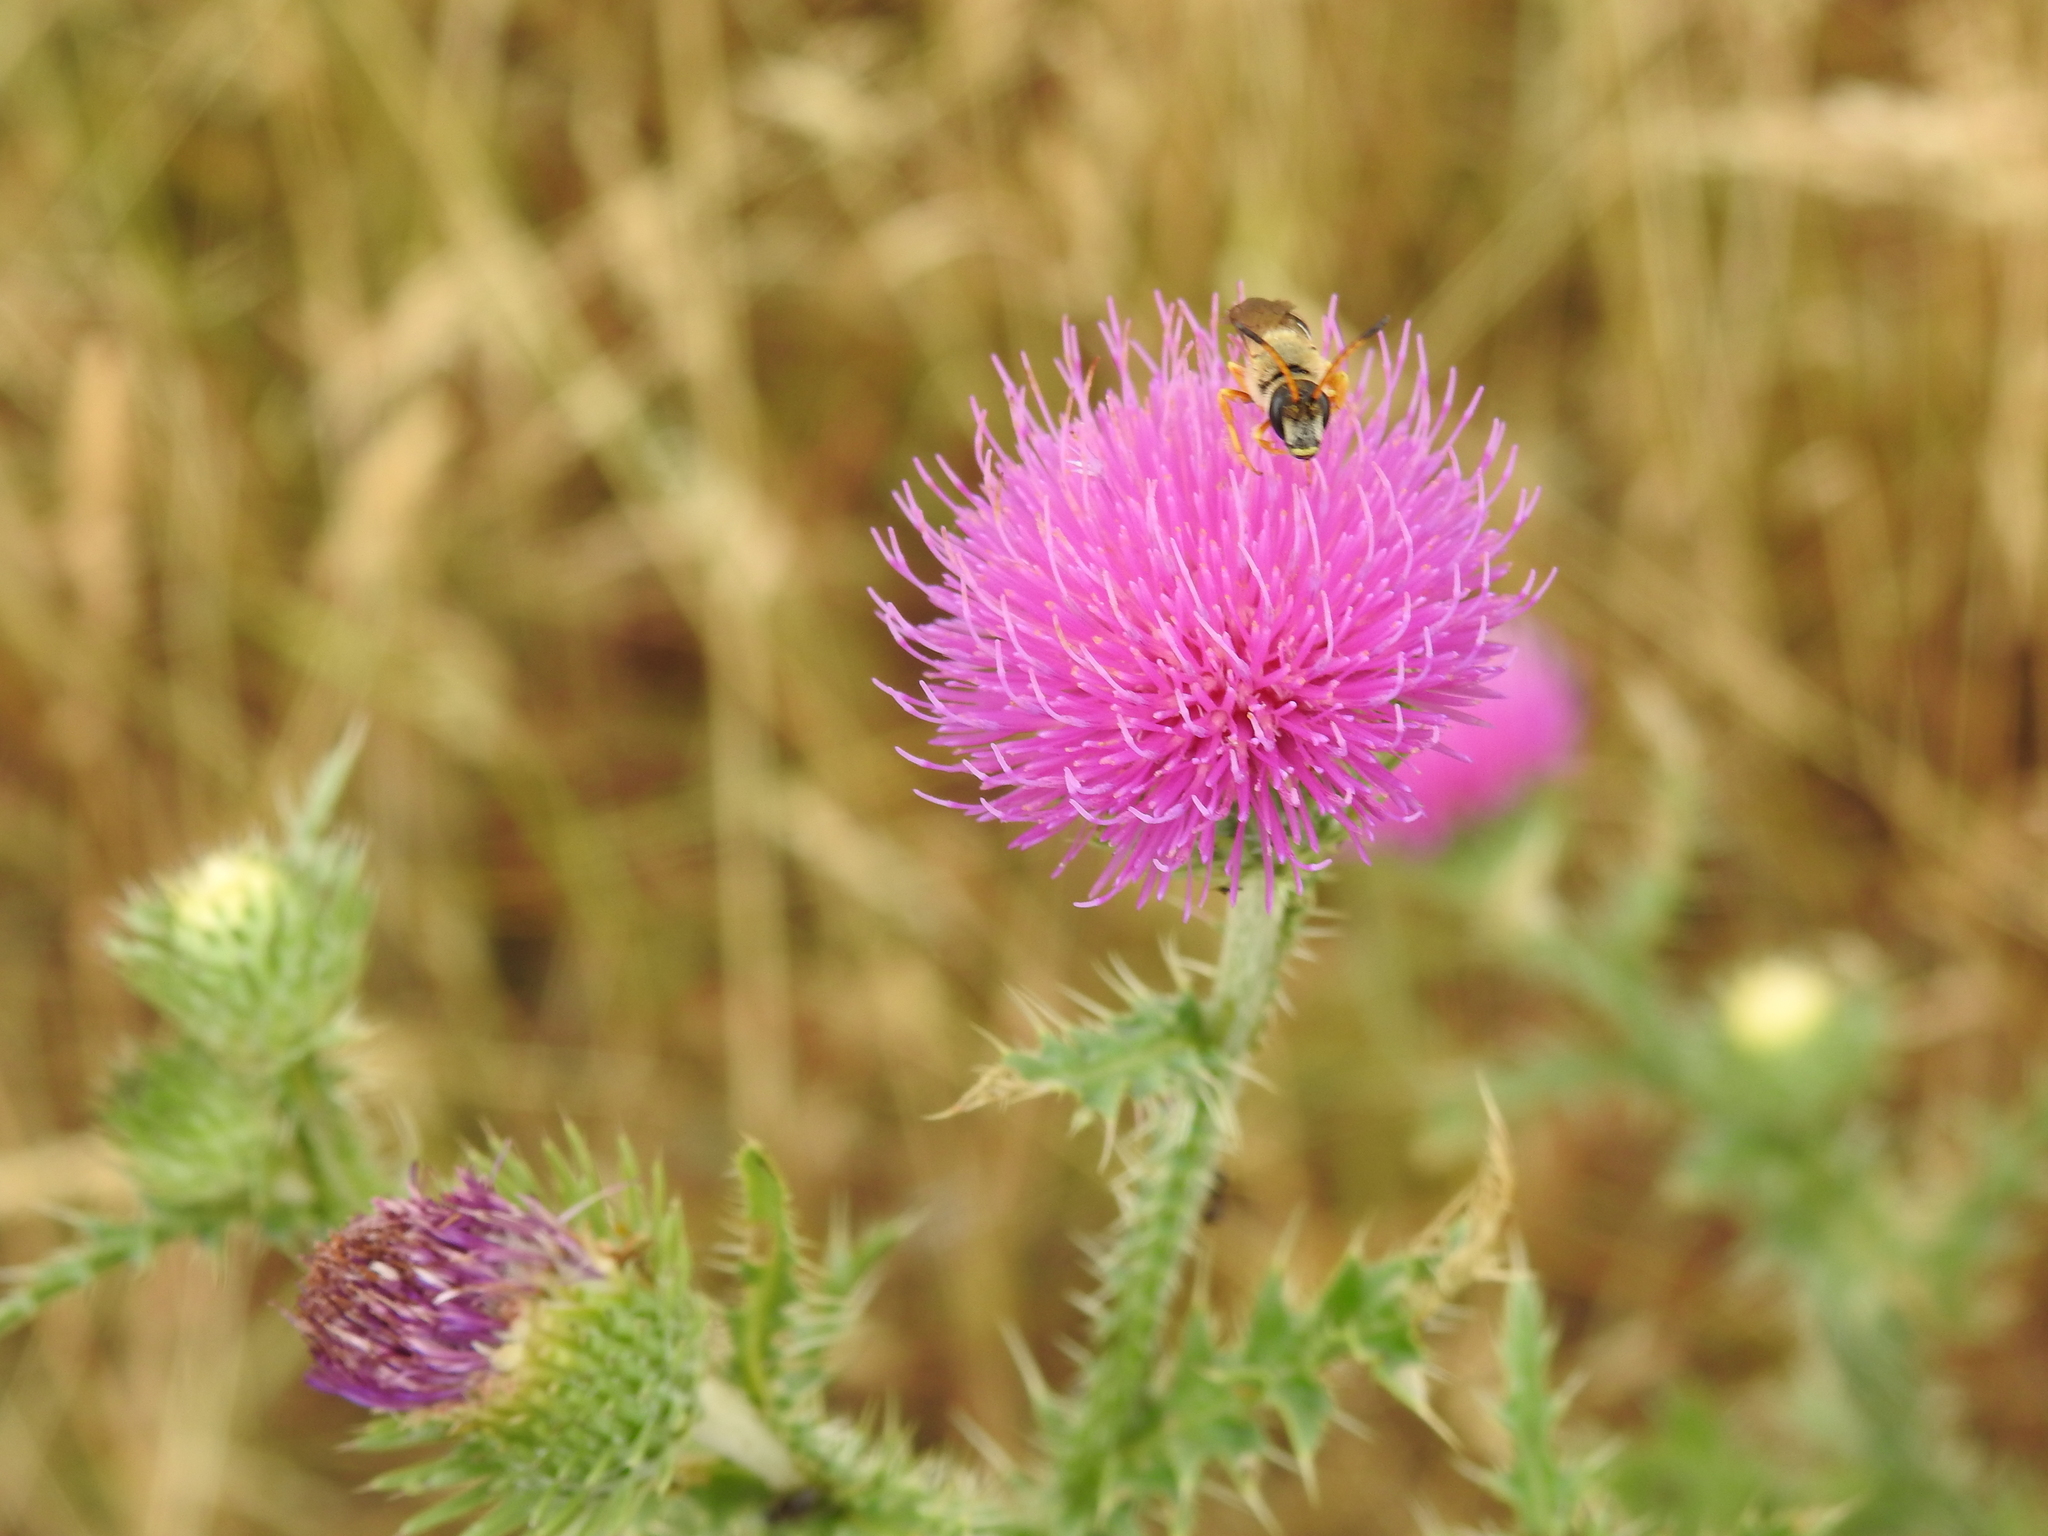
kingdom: Animalia
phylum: Arthropoda
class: Insecta
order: Hymenoptera
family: Halictidae
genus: Halictus
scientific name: Halictus sexcinctus
